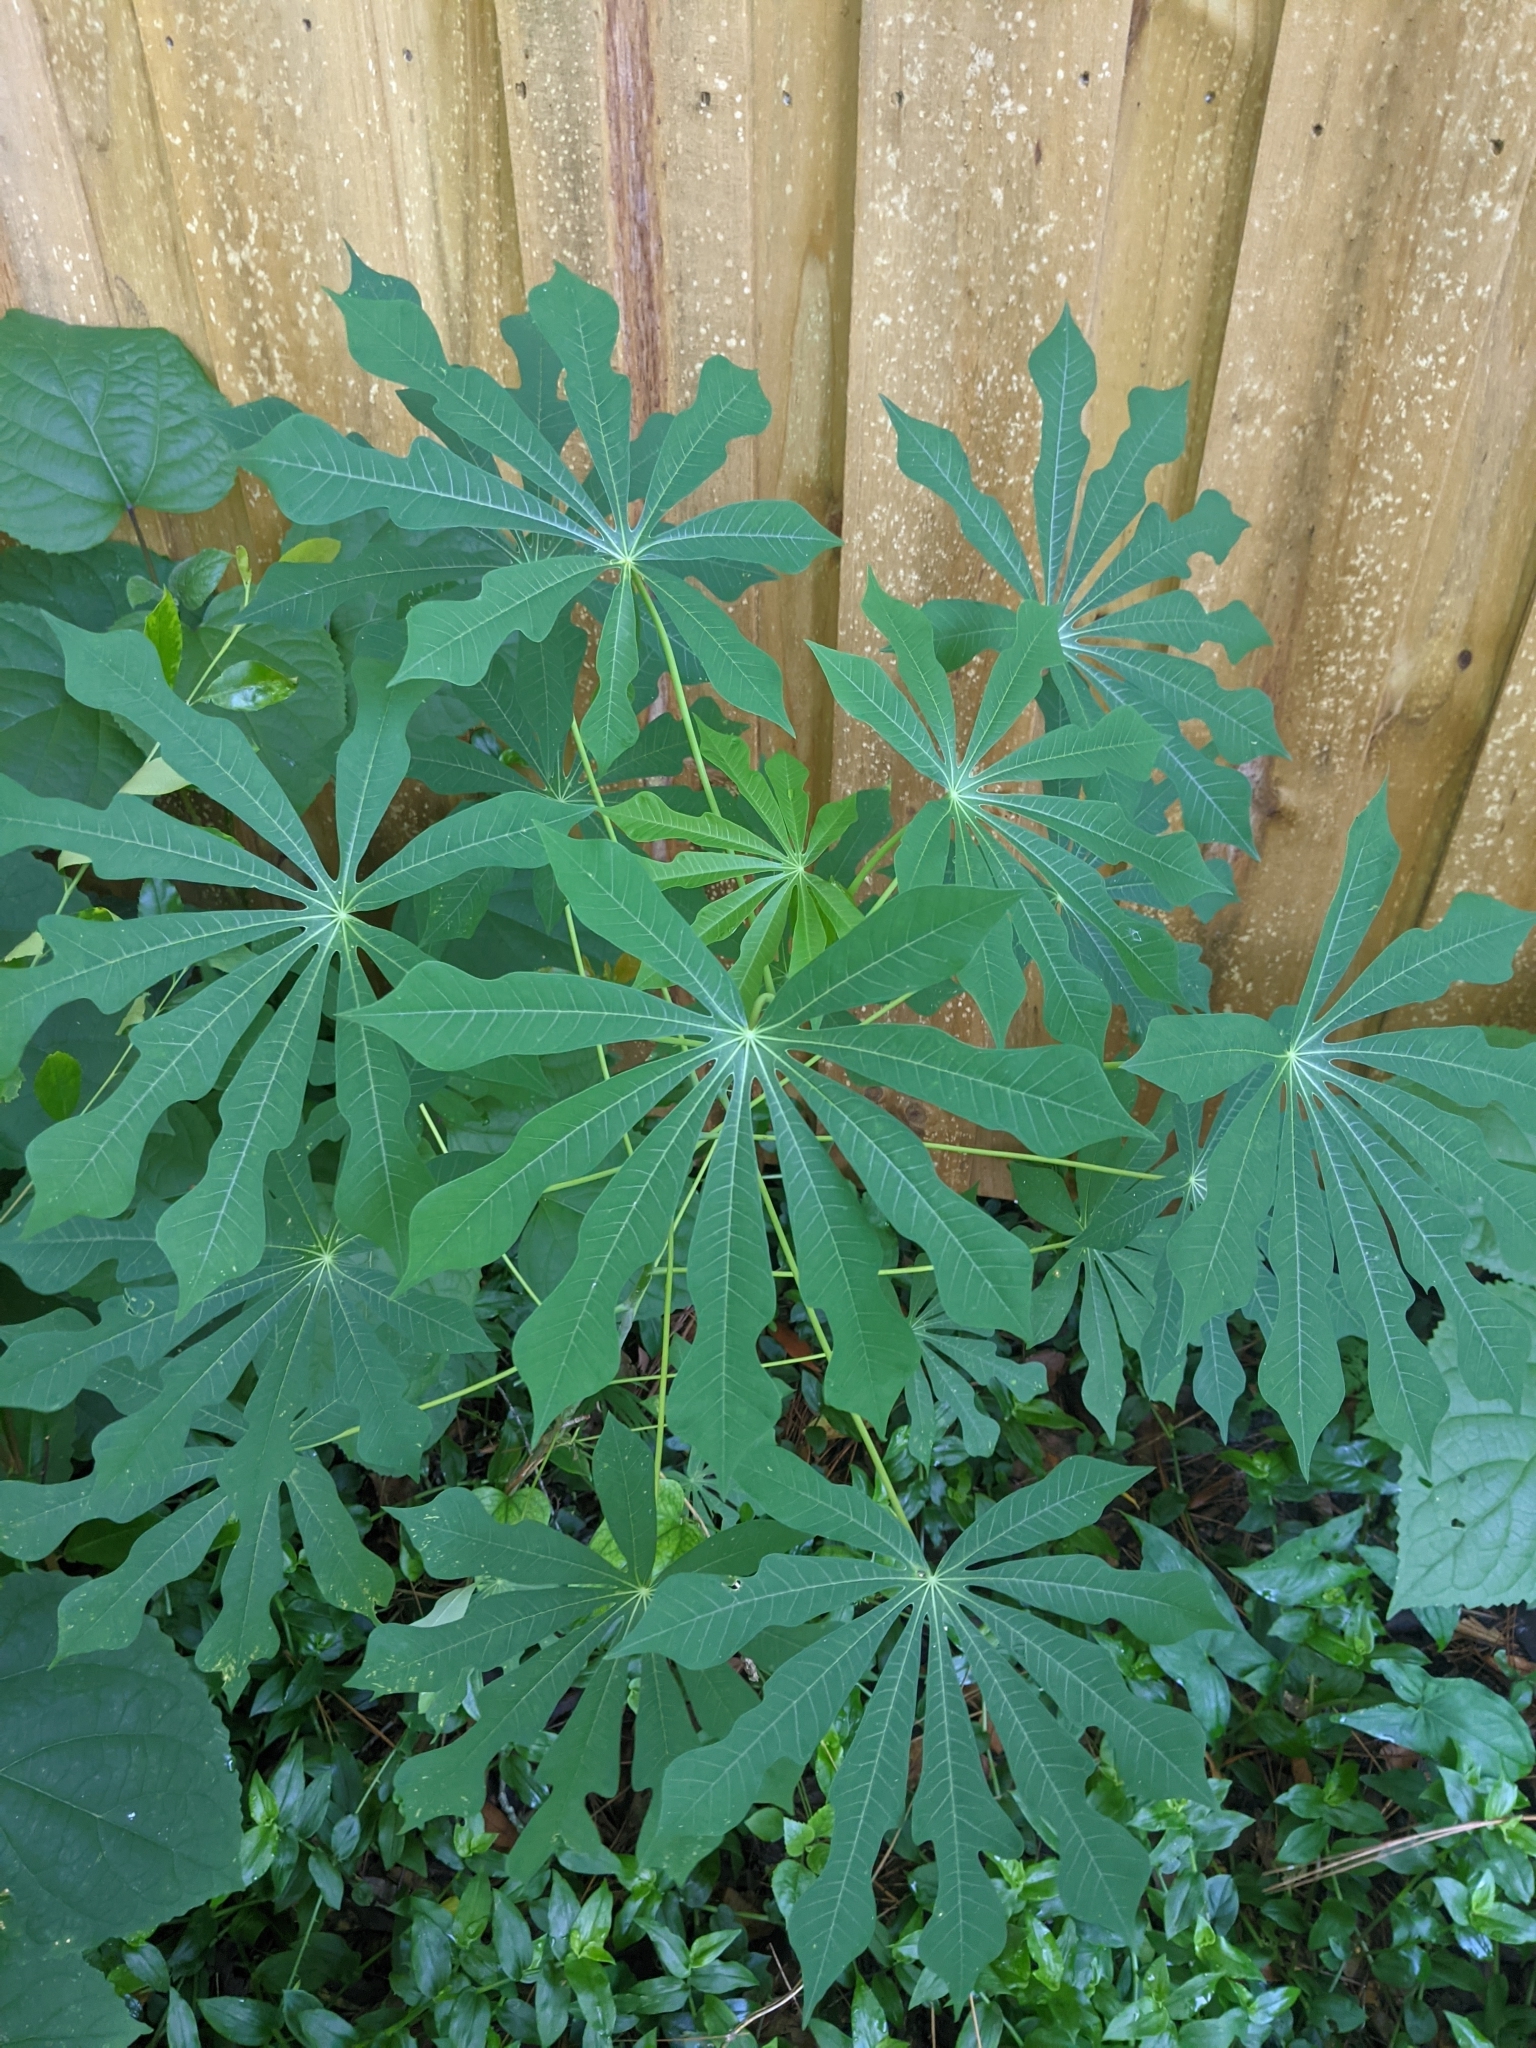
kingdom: Plantae
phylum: Tracheophyta
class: Magnoliopsida
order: Malpighiales
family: Euphorbiaceae
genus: Manihot
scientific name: Manihot grahamii
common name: Graham's manihot
